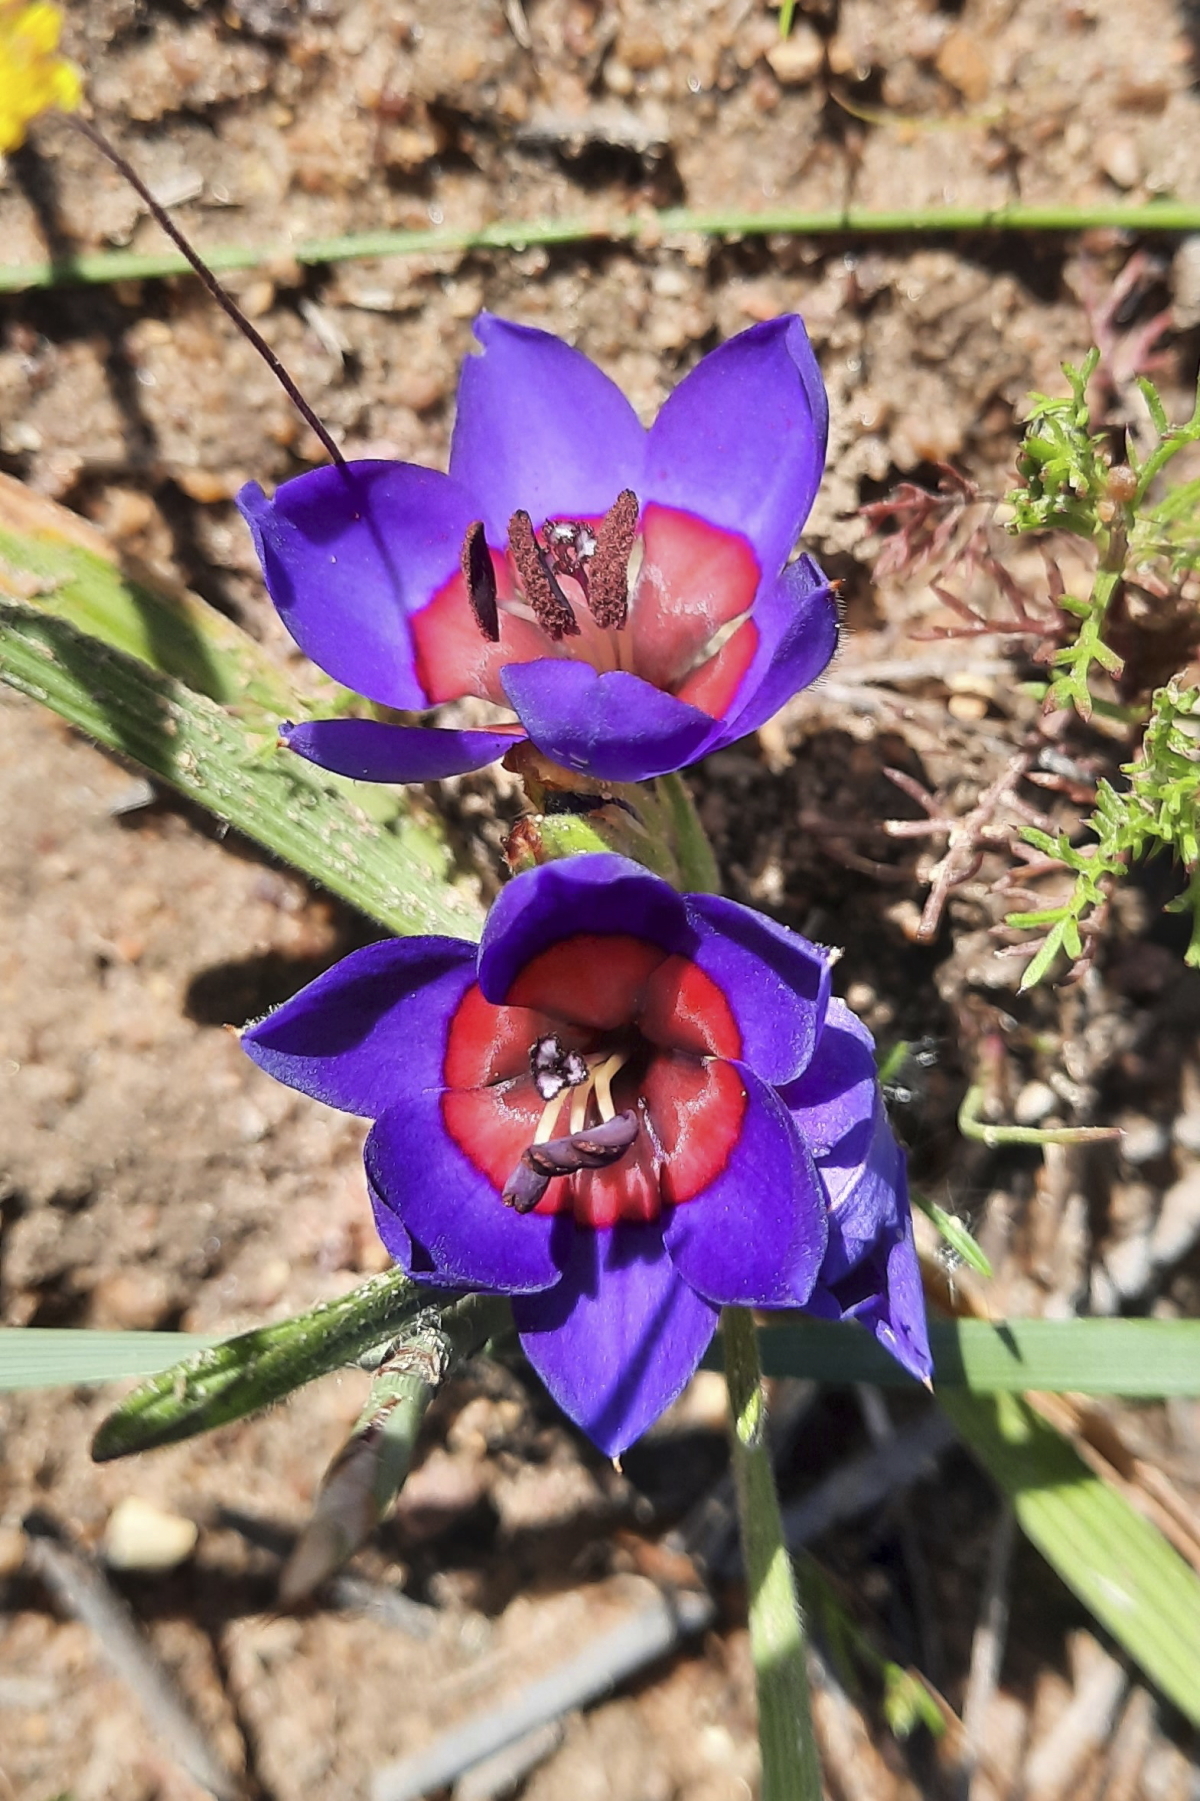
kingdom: Plantae
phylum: Tracheophyta
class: Liliopsida
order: Asparagales
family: Iridaceae
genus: Babiana
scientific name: Babiana rubrocyanea
